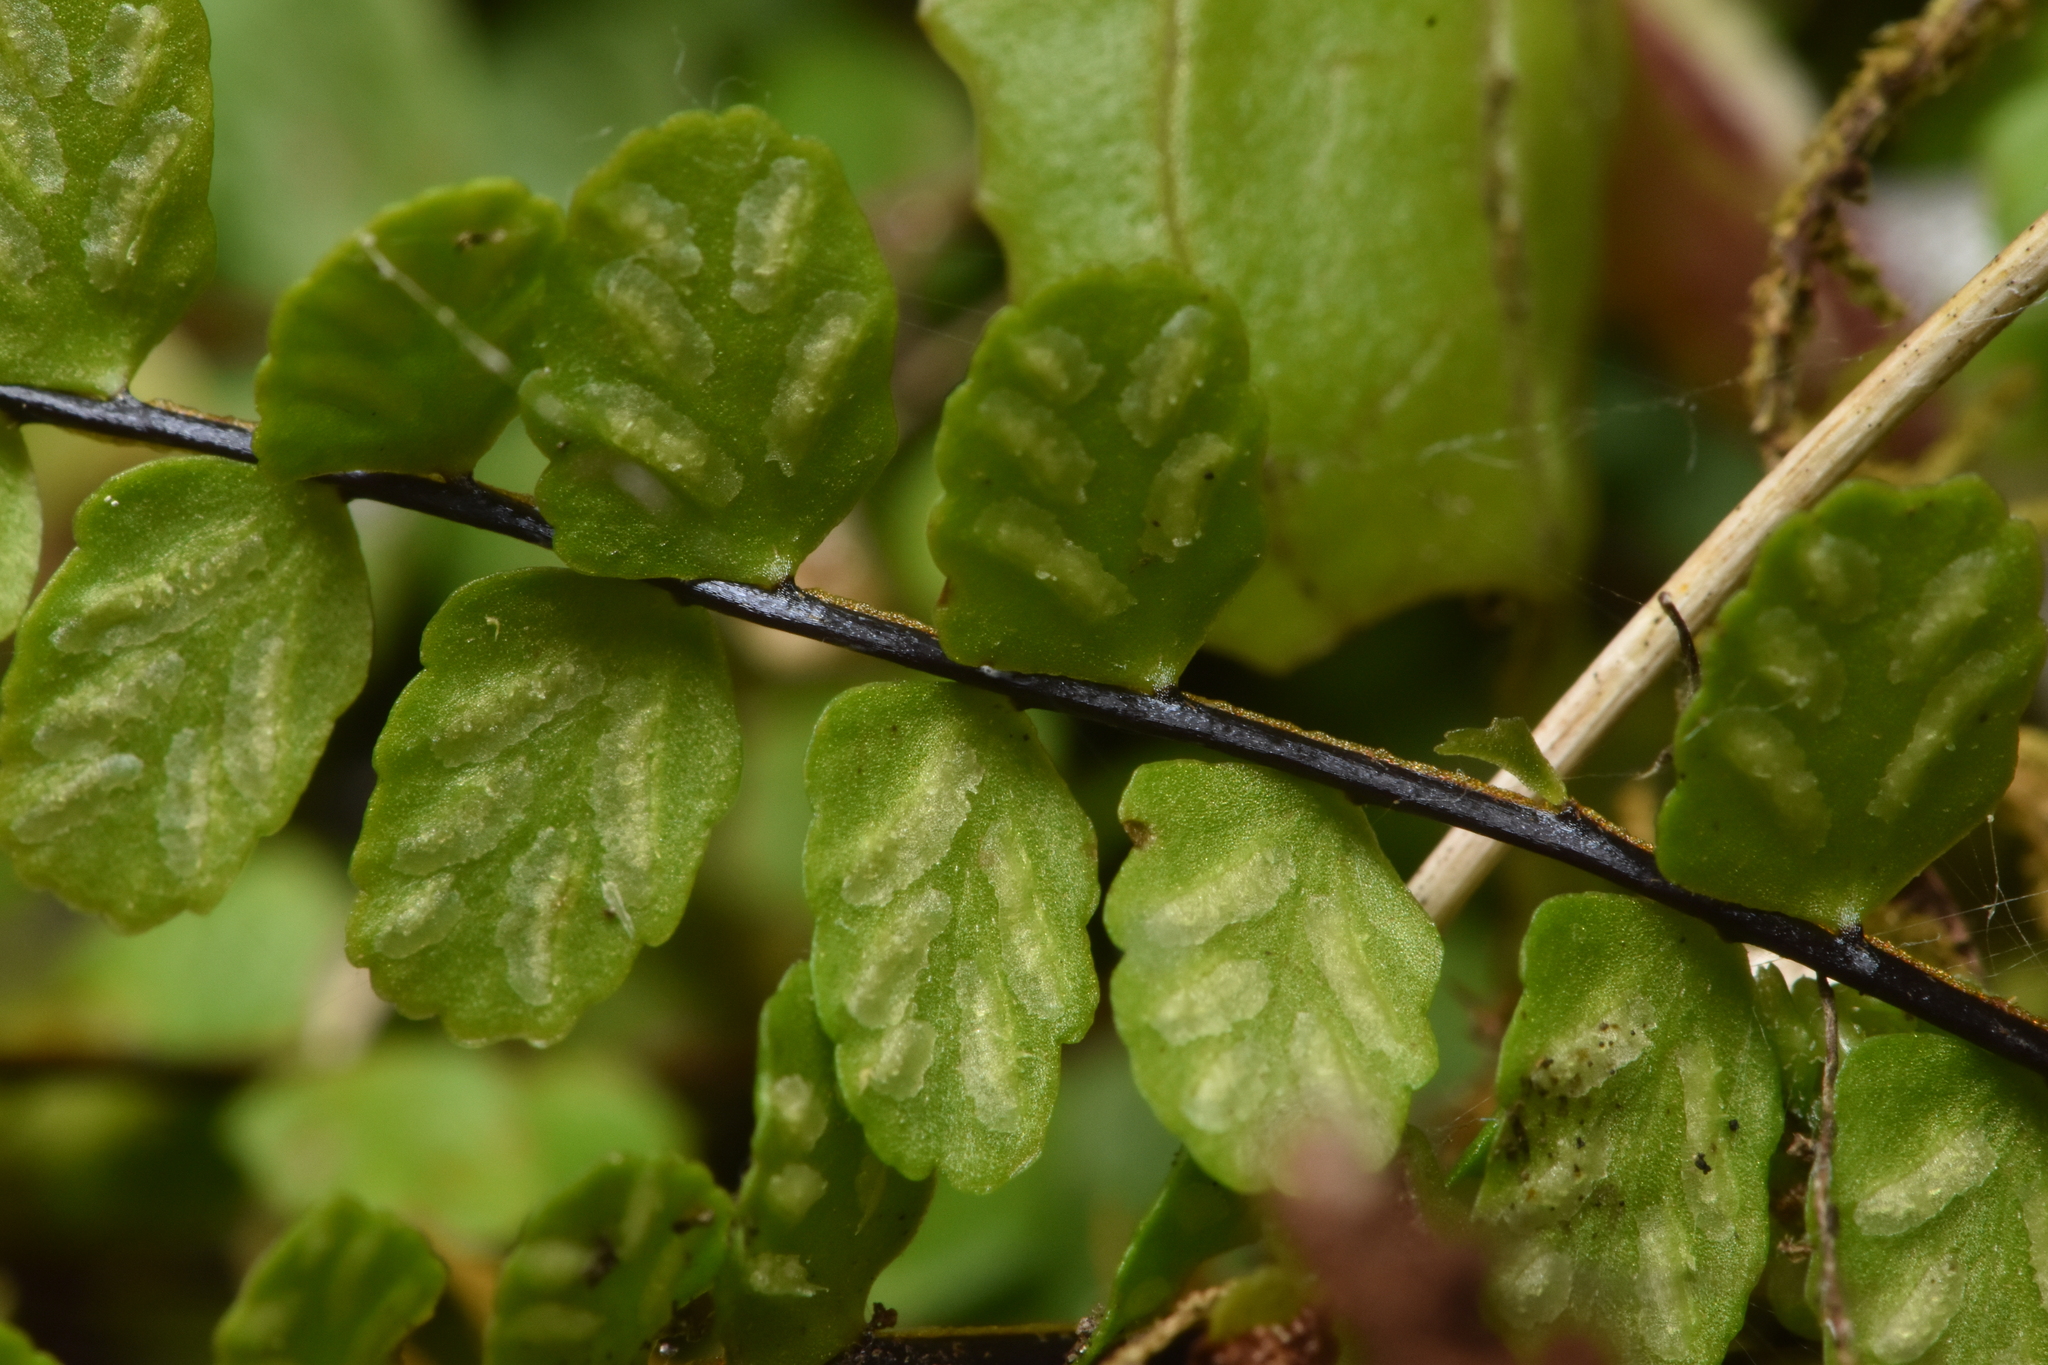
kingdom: Plantae
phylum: Tracheophyta
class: Polypodiopsida
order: Polypodiales
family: Aspleniaceae
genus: Asplenium
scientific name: Asplenium trichomanes
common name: Maidenhair spleenwort
